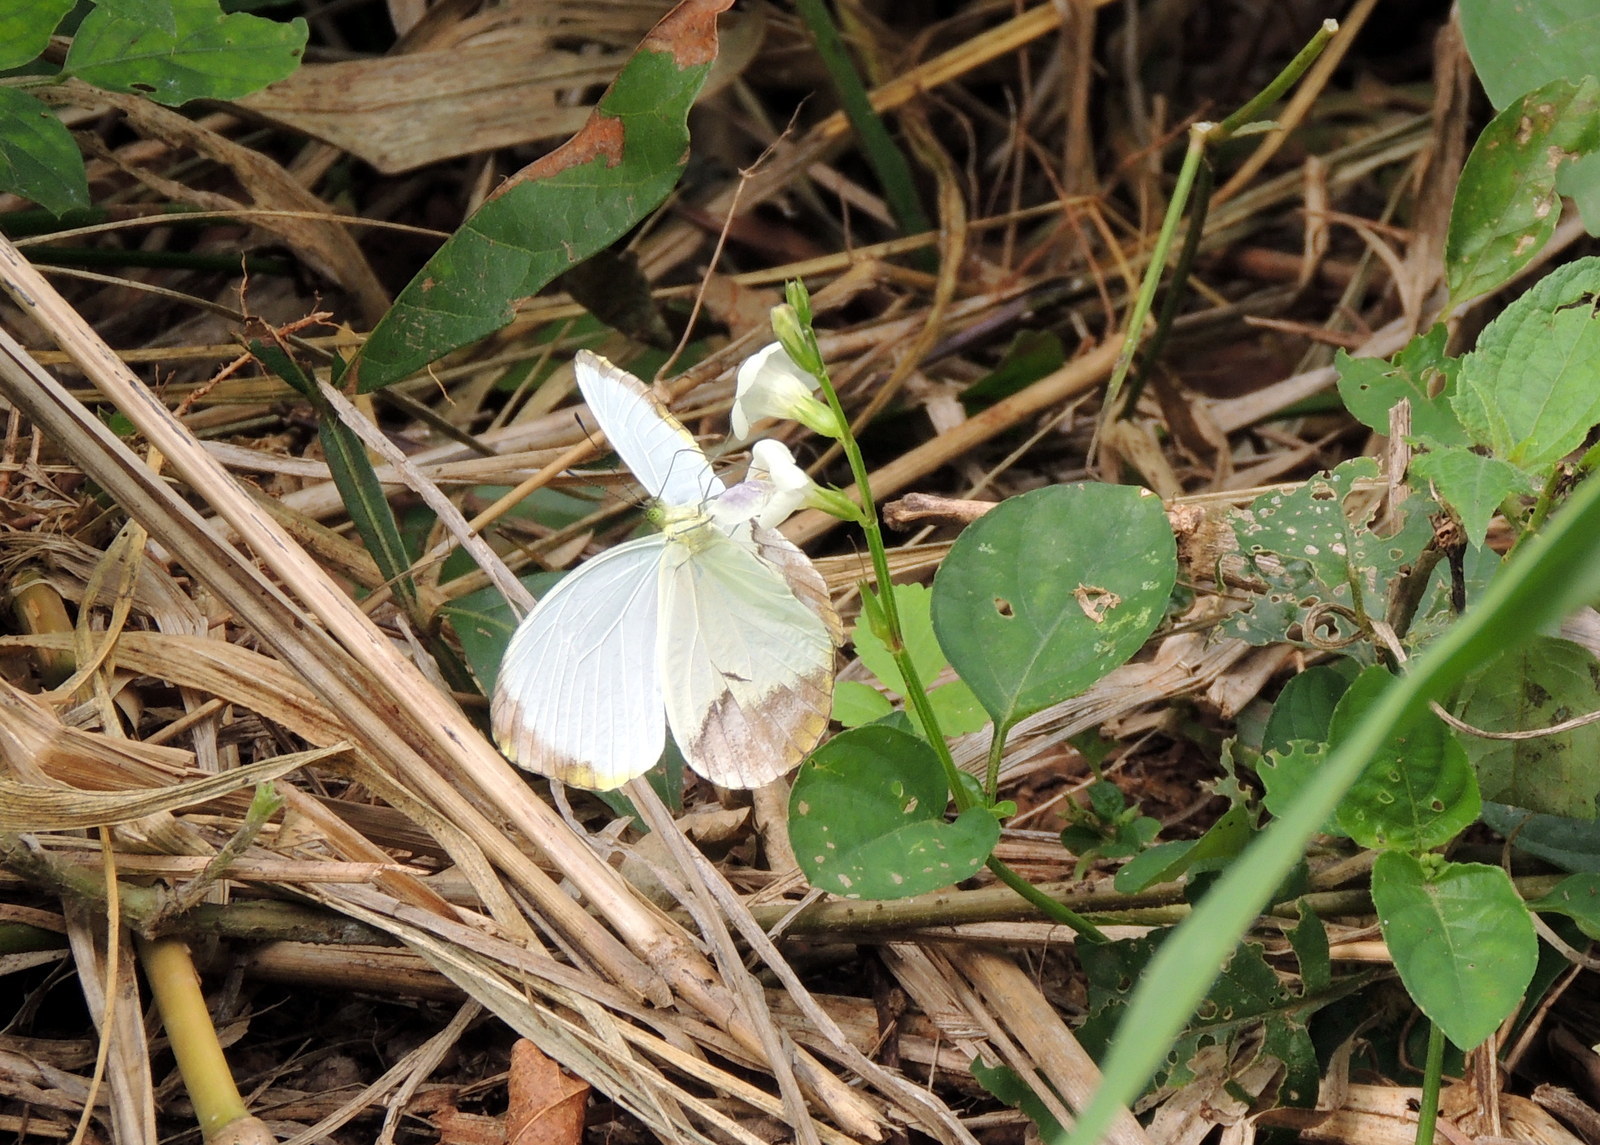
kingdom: Animalia
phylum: Arthropoda
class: Insecta
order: Lepidoptera
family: Pieridae
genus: Nepheronia
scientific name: Nepheronia pharis
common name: Round-winged vagrant
